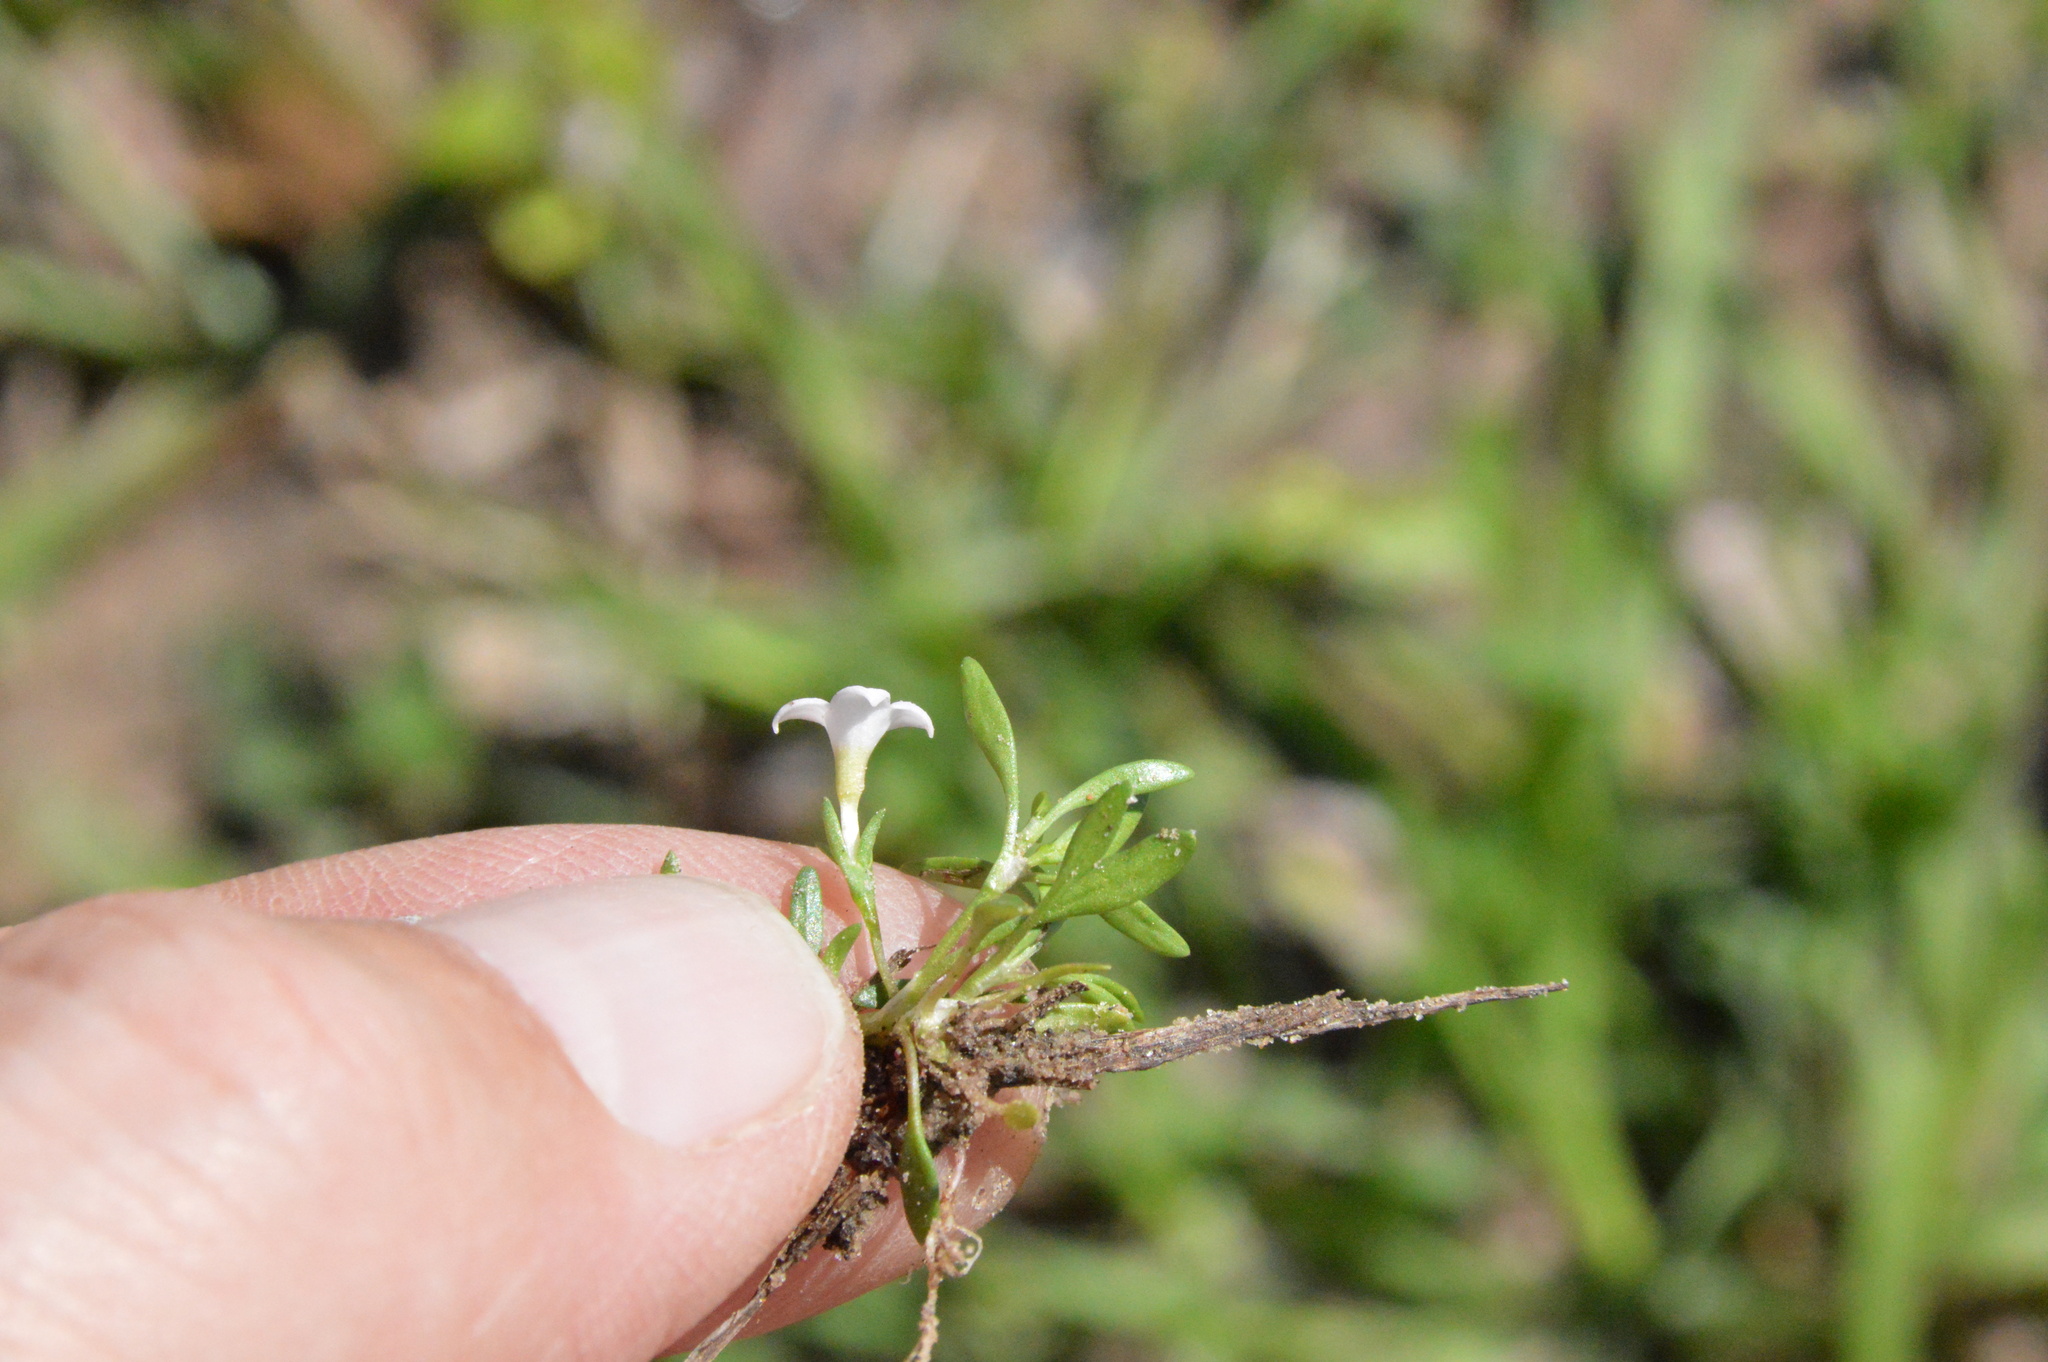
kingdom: Plantae
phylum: Tracheophyta
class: Magnoliopsida
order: Gentianales
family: Rubiaceae
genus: Houstonia
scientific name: Houstonia rosea
